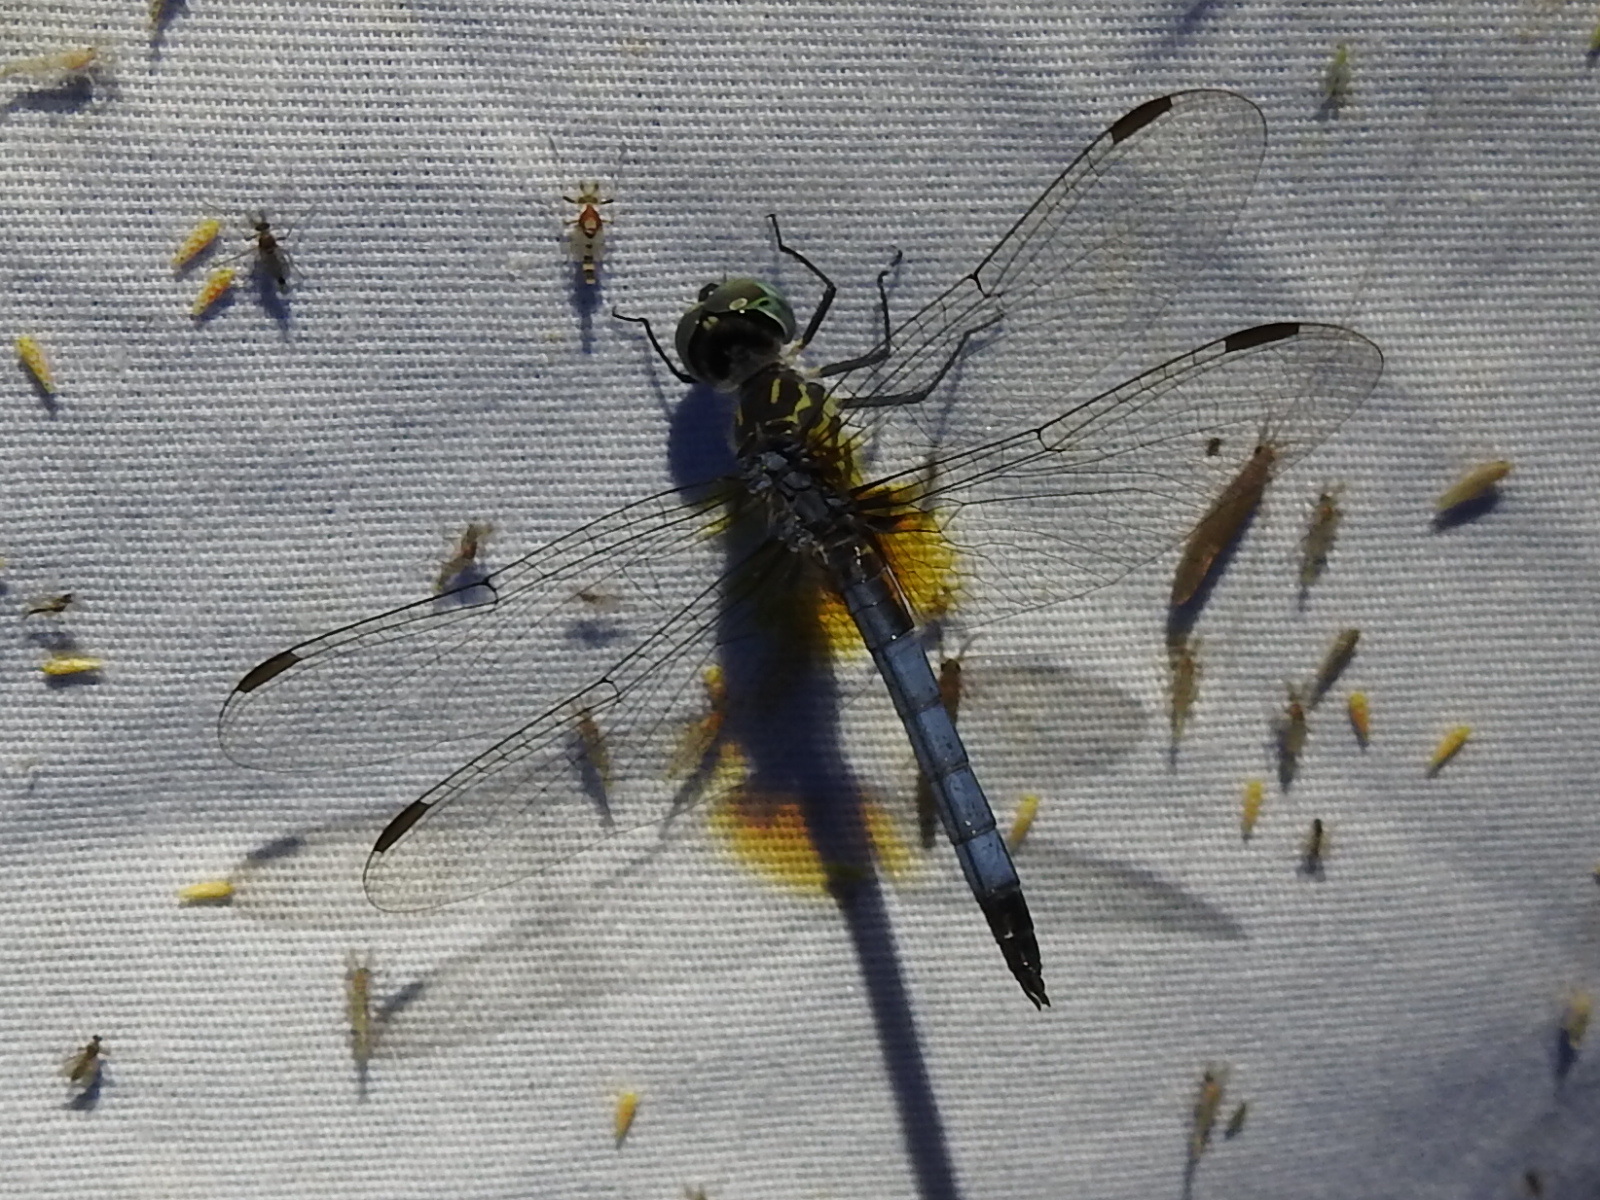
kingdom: Animalia
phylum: Arthropoda
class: Insecta
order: Odonata
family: Libellulidae
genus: Pachydiplax
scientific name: Pachydiplax longipennis
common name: Blue dasher
